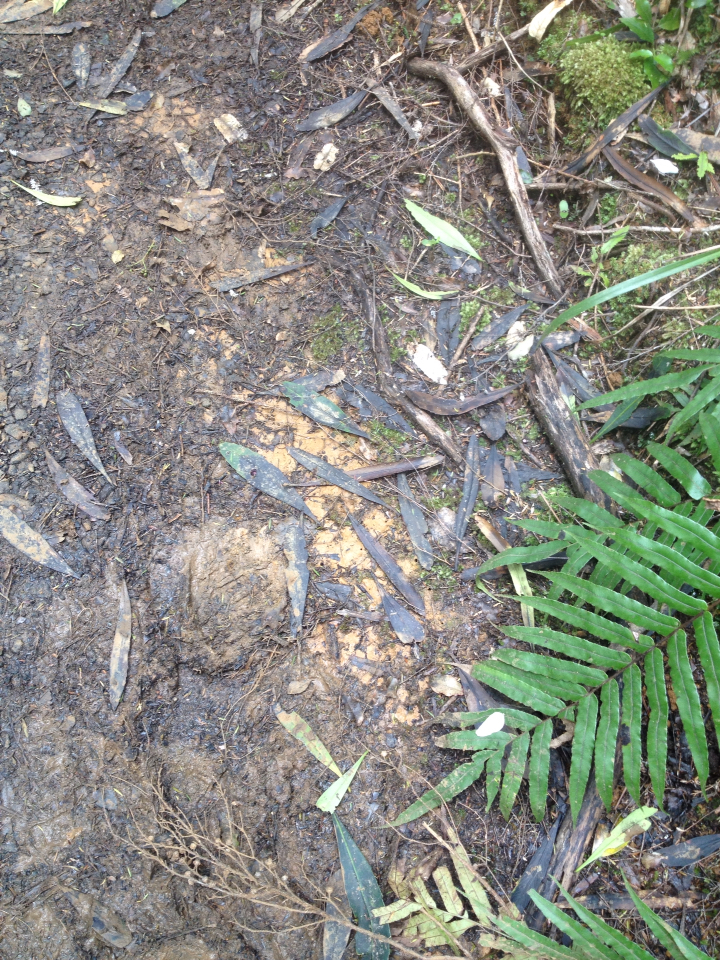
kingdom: Plantae
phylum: Tracheophyta
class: Magnoliopsida
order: Apiales
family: Araliaceae
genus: Pseudopanax
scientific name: Pseudopanax crassifolius
